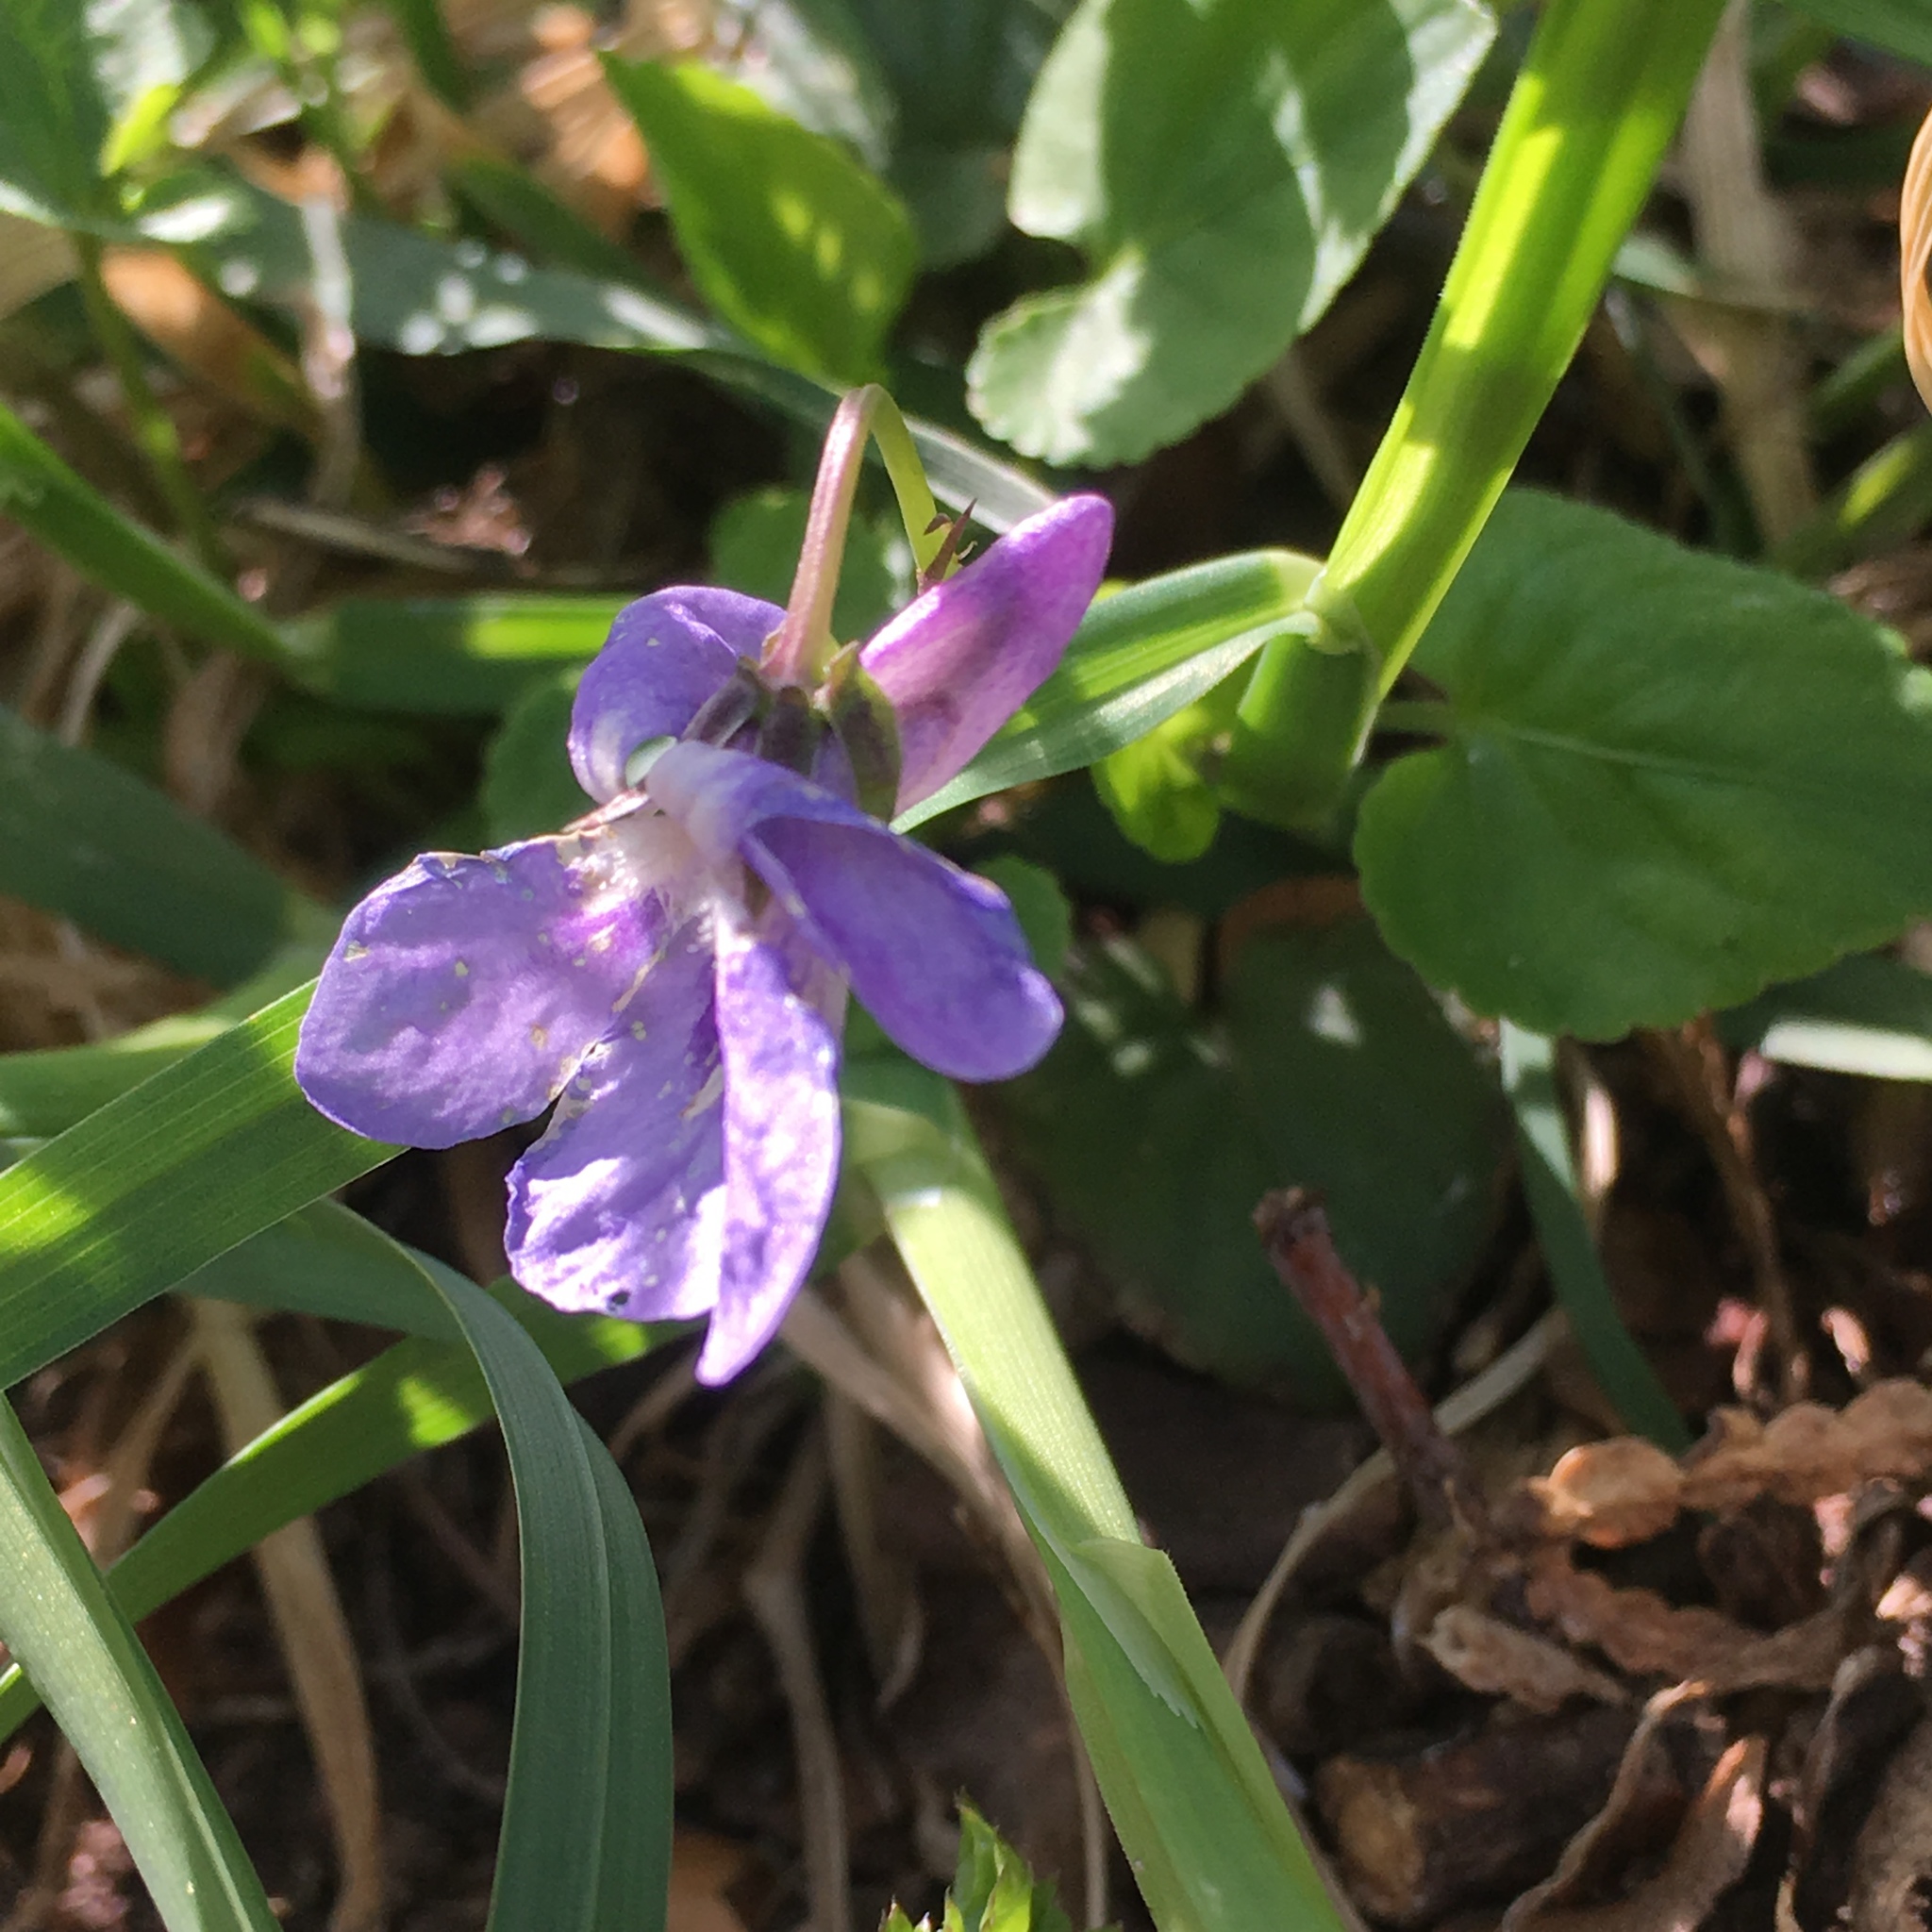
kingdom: Plantae
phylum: Tracheophyta
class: Magnoliopsida
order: Malpighiales
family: Violaceae
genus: Viola
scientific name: Viola reichenbachiana
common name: Early dog-violet
